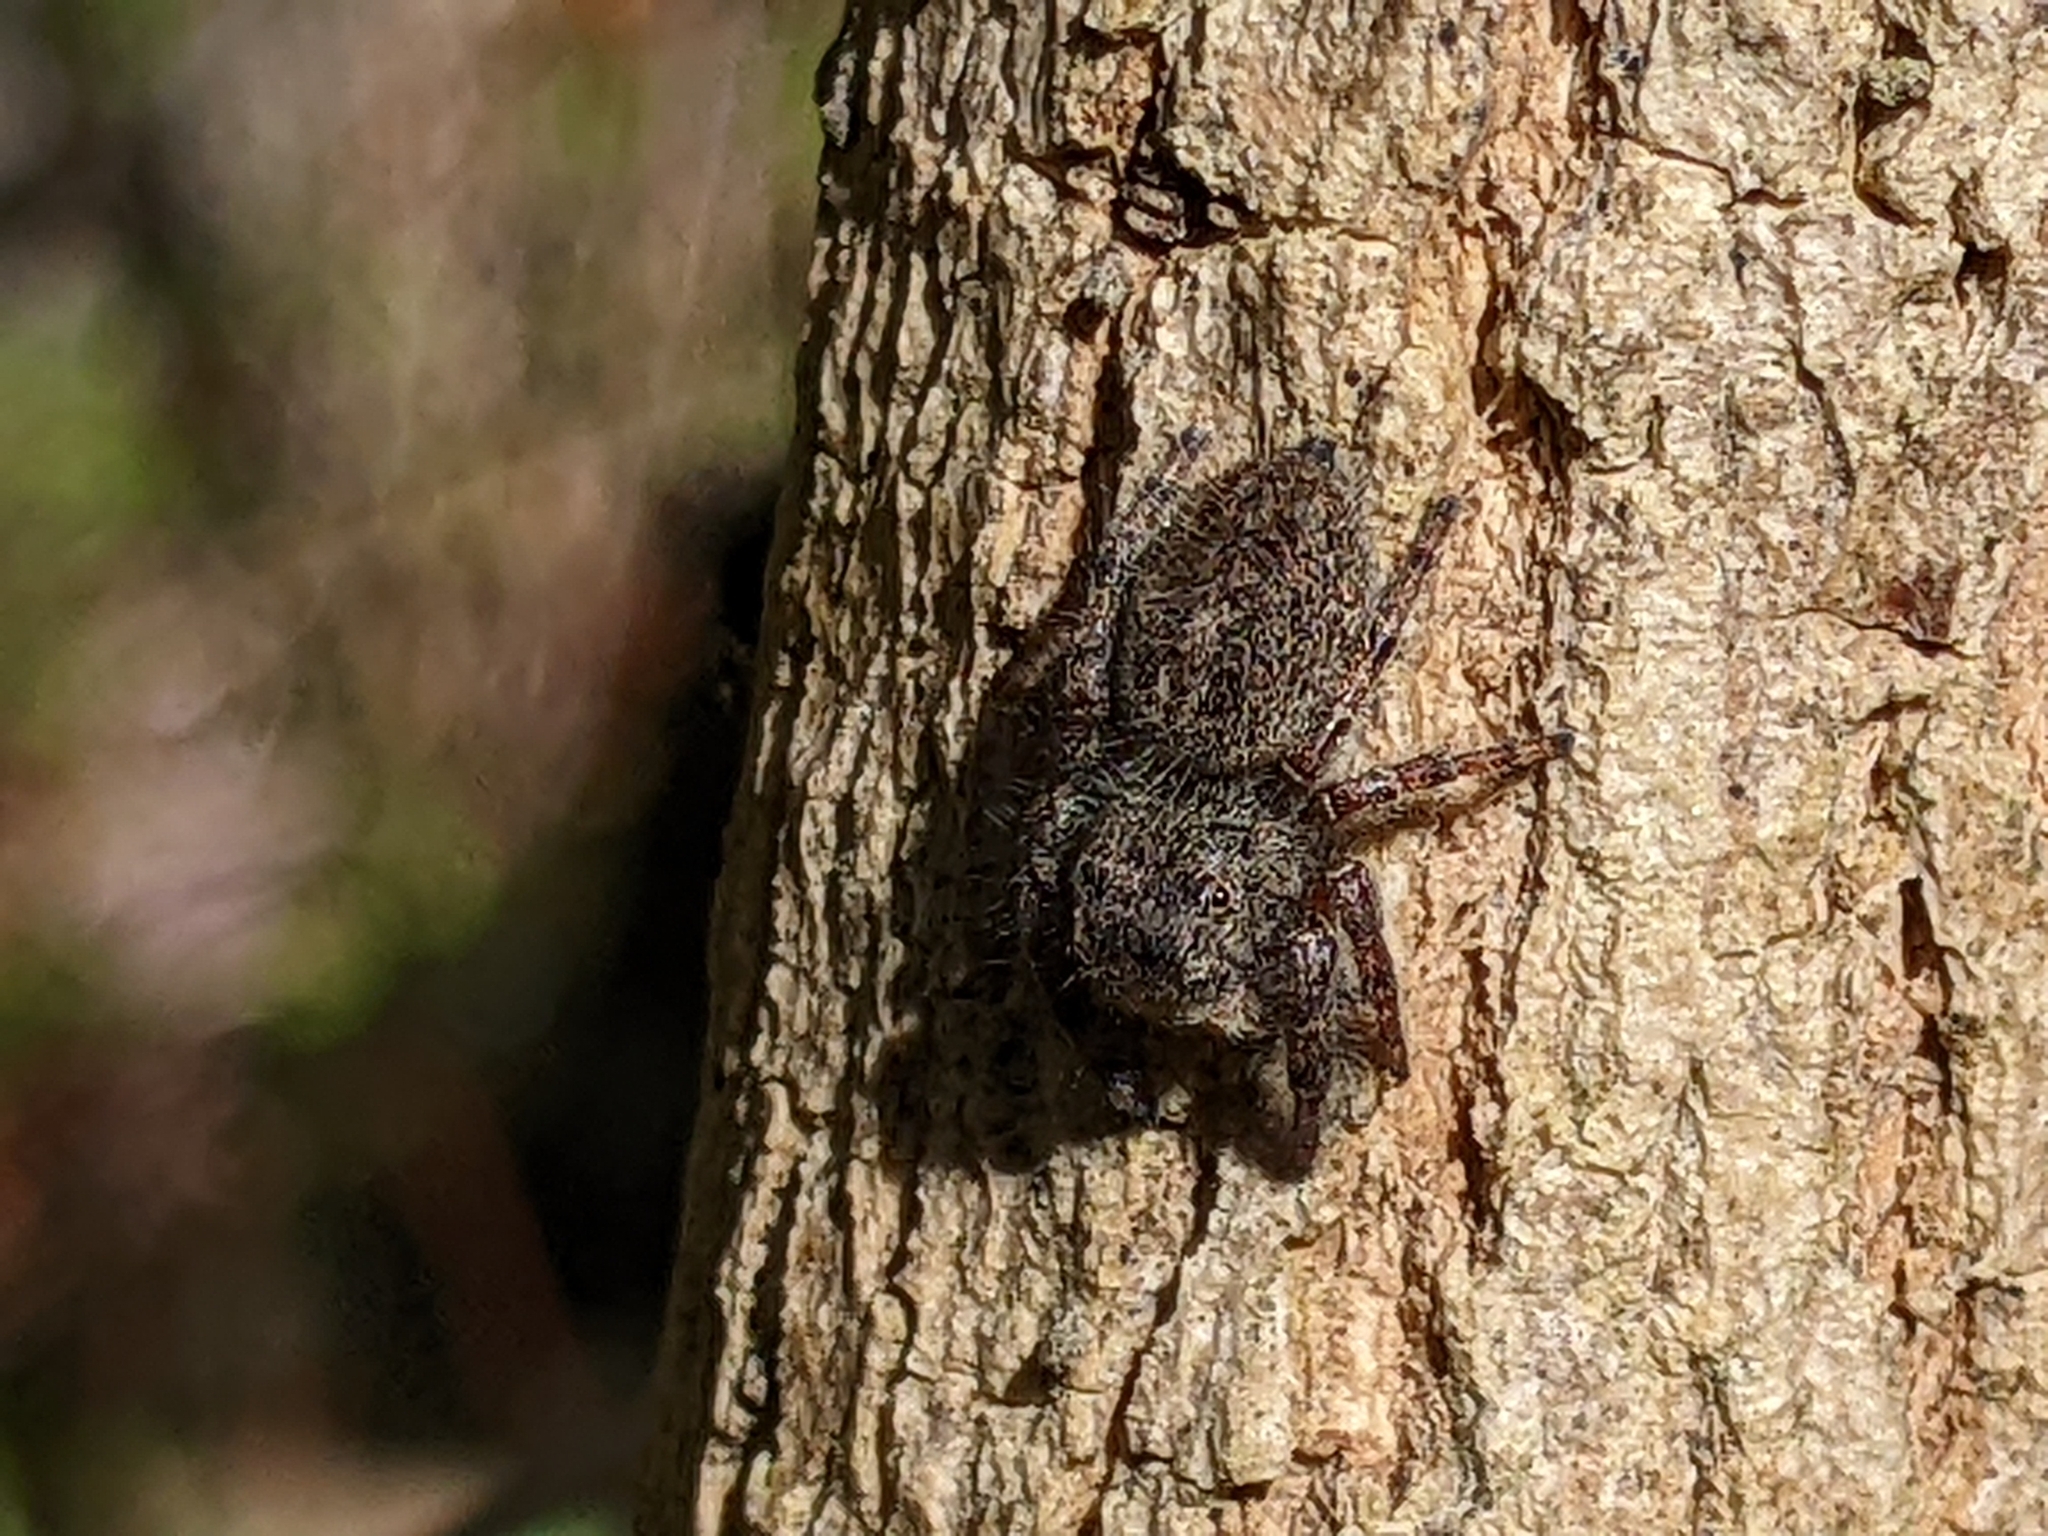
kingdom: Animalia
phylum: Arthropoda
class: Arachnida
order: Araneae
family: Salticidae
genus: Phidippus
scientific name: Phidippus princeps
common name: Grayish jumping spider
